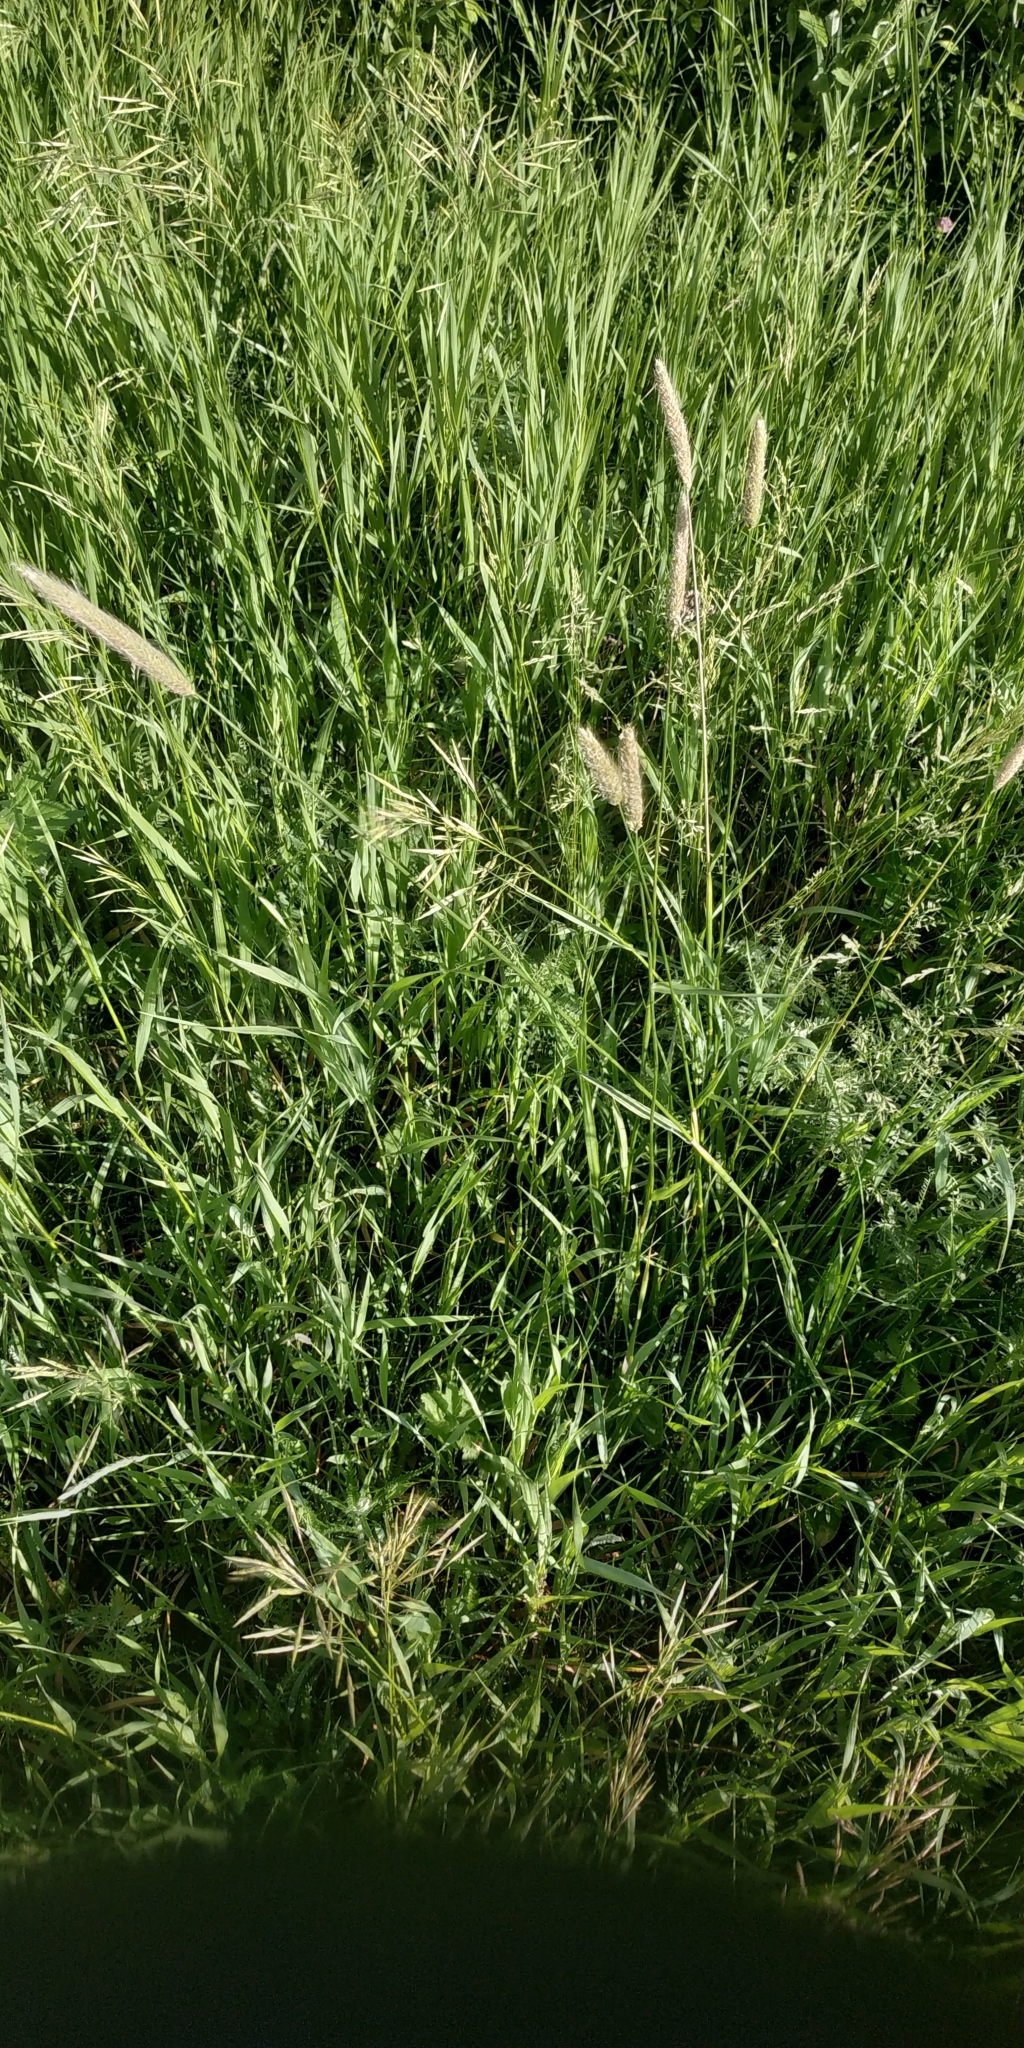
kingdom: Plantae
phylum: Tracheophyta
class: Liliopsida
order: Poales
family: Poaceae
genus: Alopecurus
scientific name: Alopecurus pratensis
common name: Meadow foxtail
